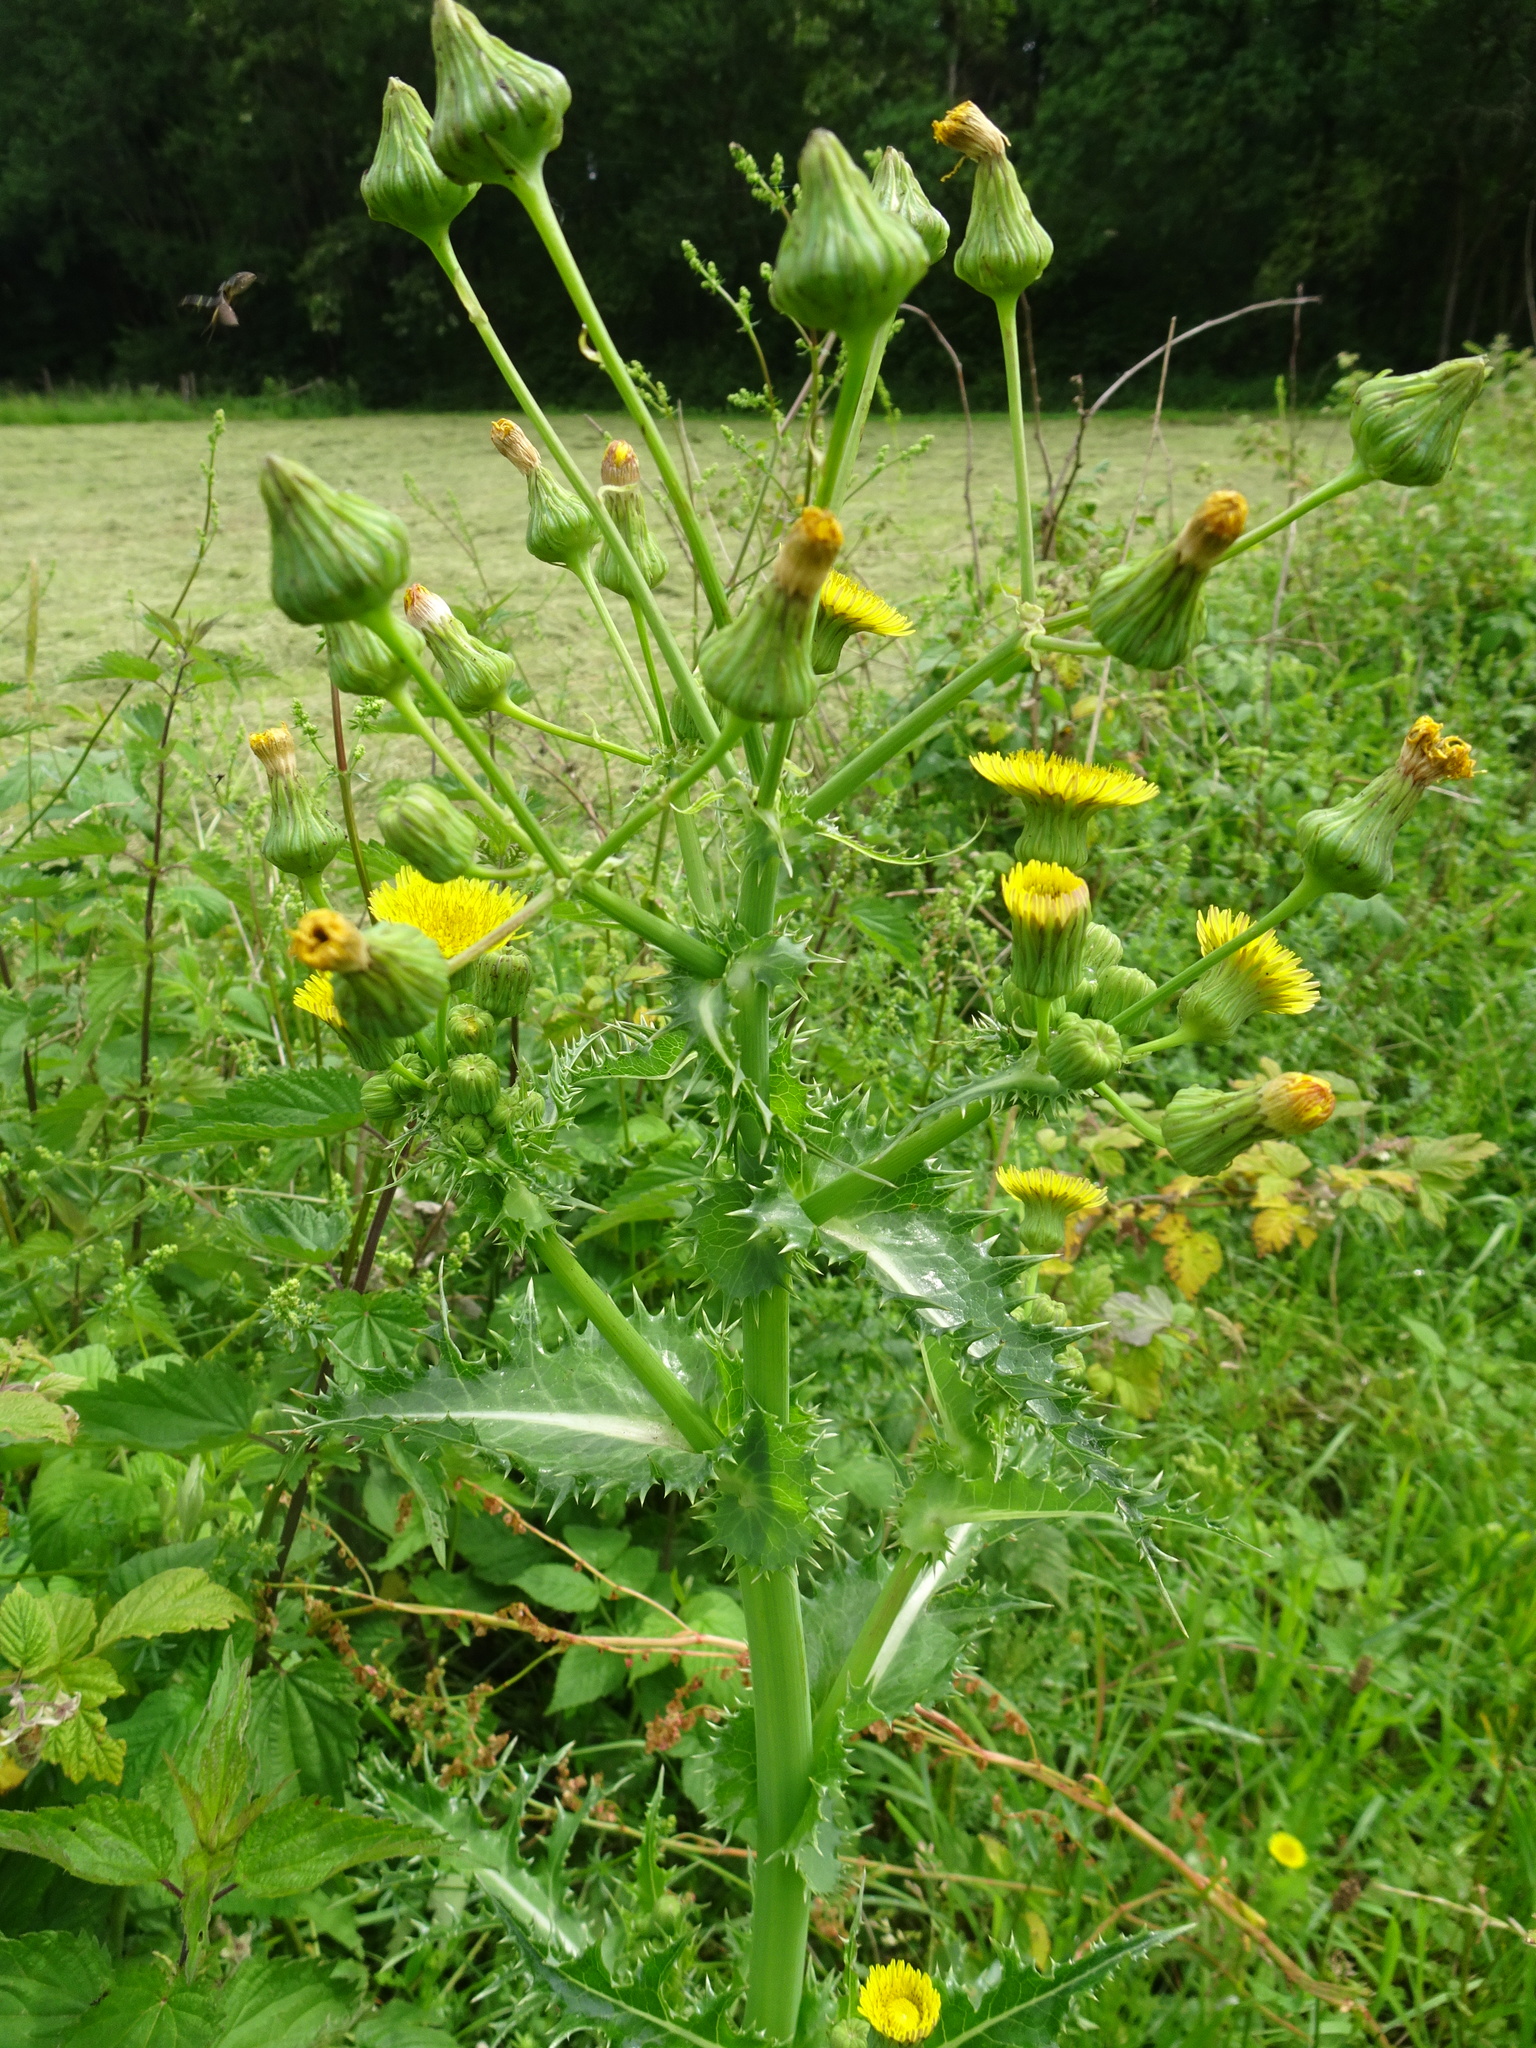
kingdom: Plantae
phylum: Tracheophyta
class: Magnoliopsida
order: Asterales
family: Asteraceae
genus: Sonchus
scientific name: Sonchus asper
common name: Prickly sow-thistle
